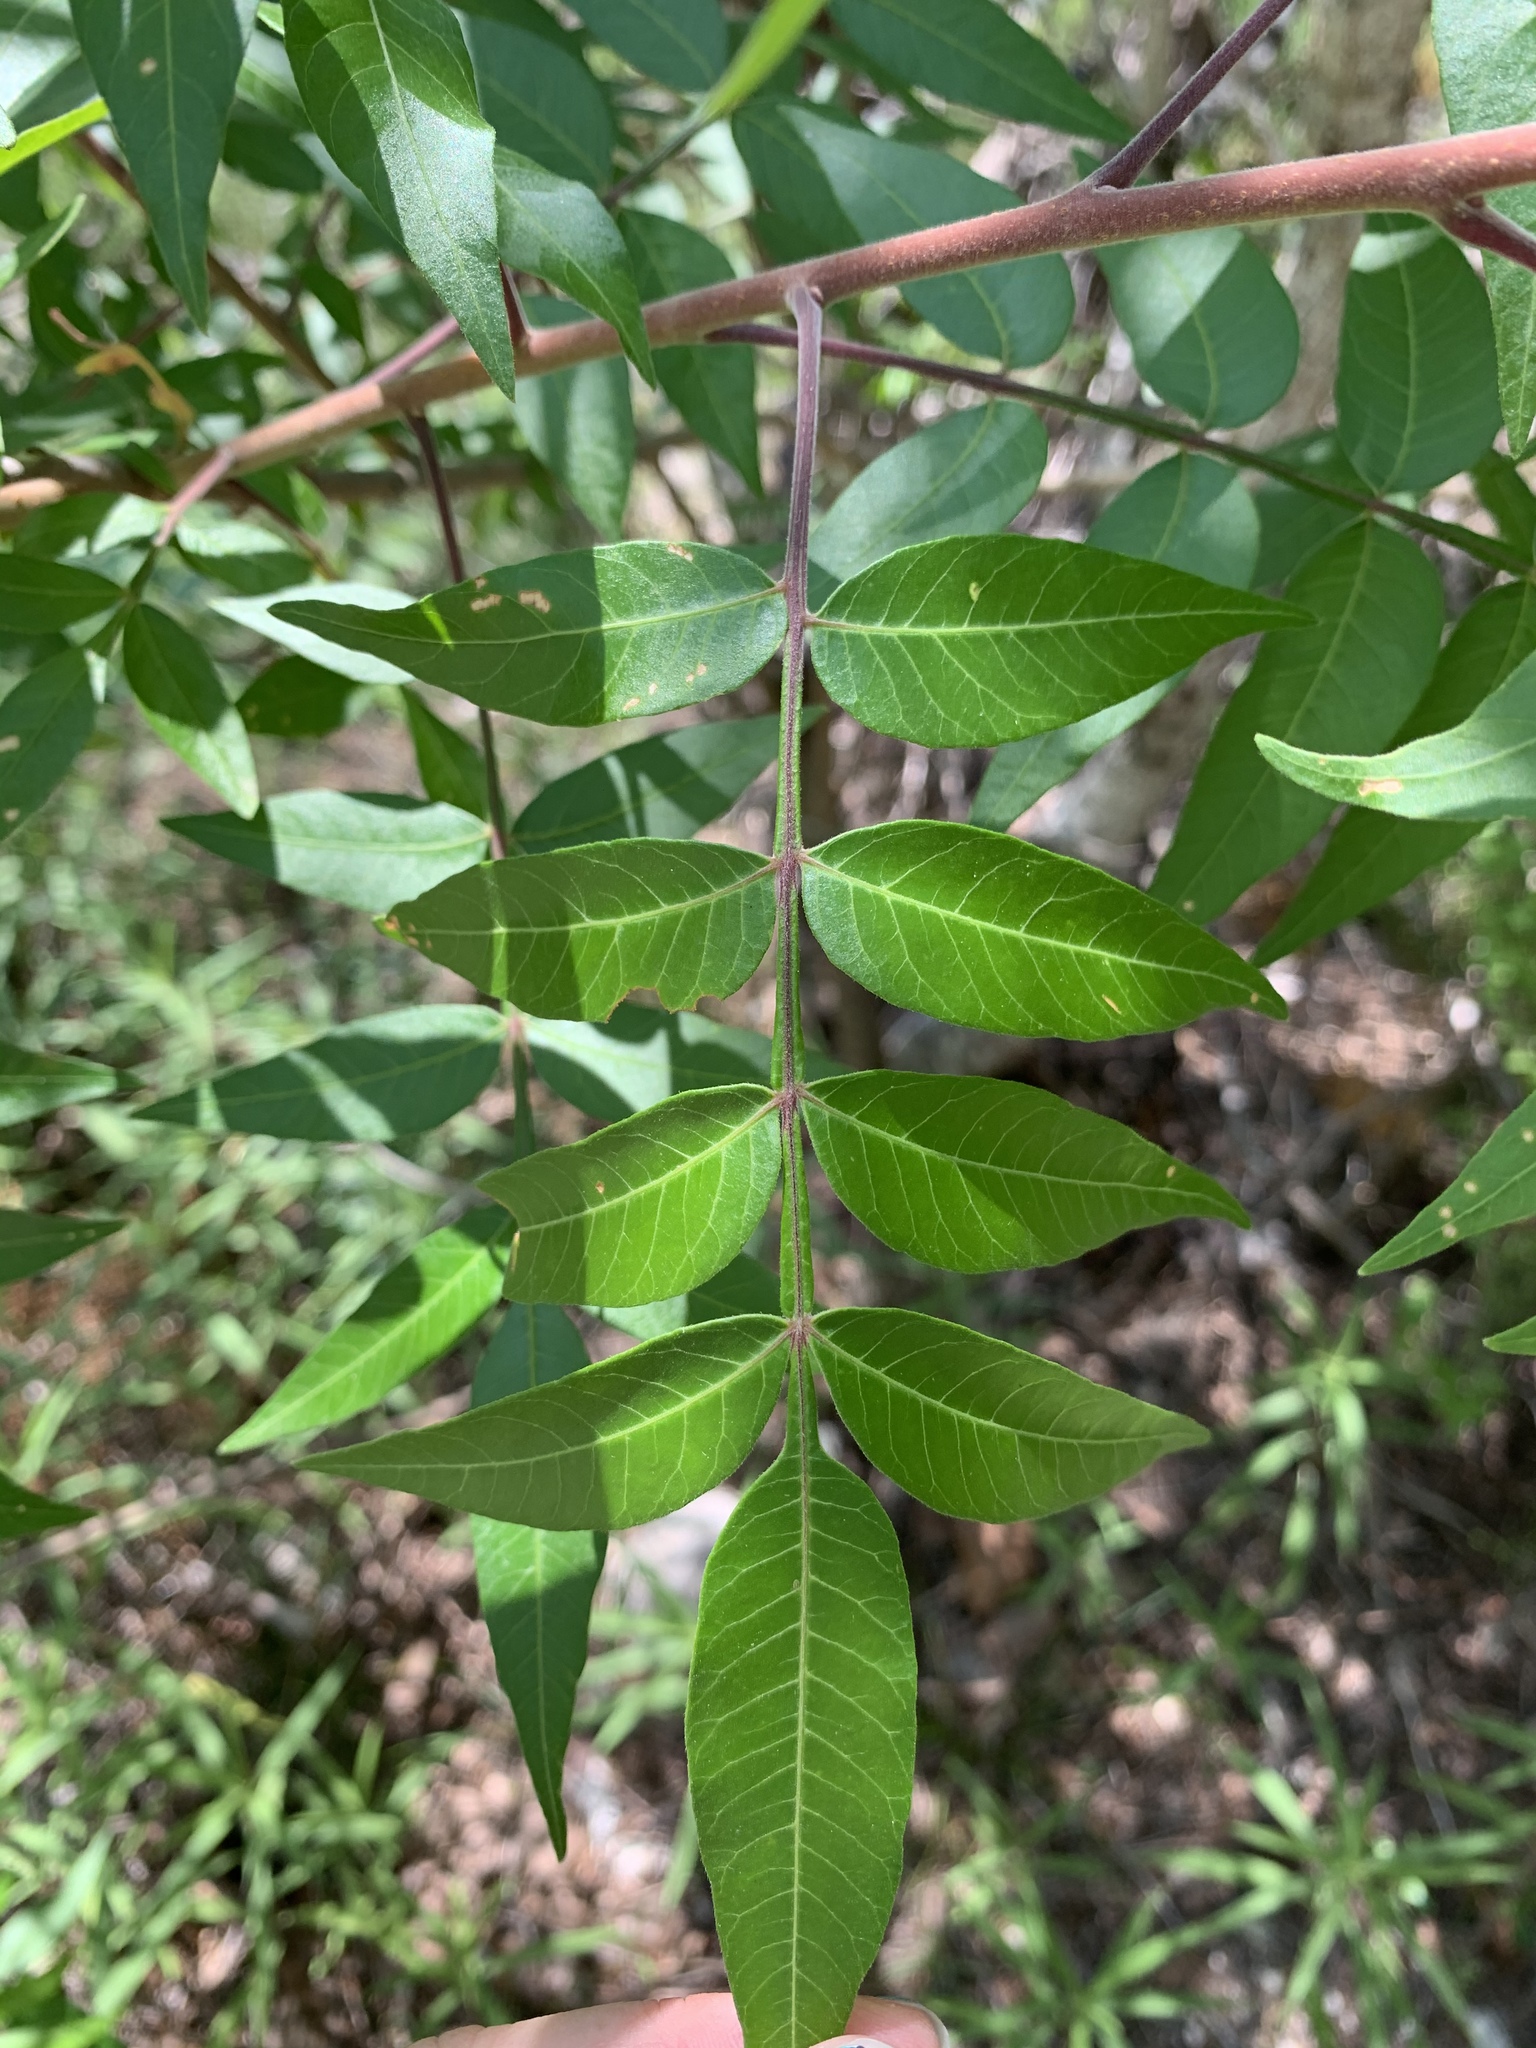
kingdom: Plantae
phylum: Tracheophyta
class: Magnoliopsida
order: Sapindales
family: Anacardiaceae
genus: Rhus
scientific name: Rhus lanceolata
